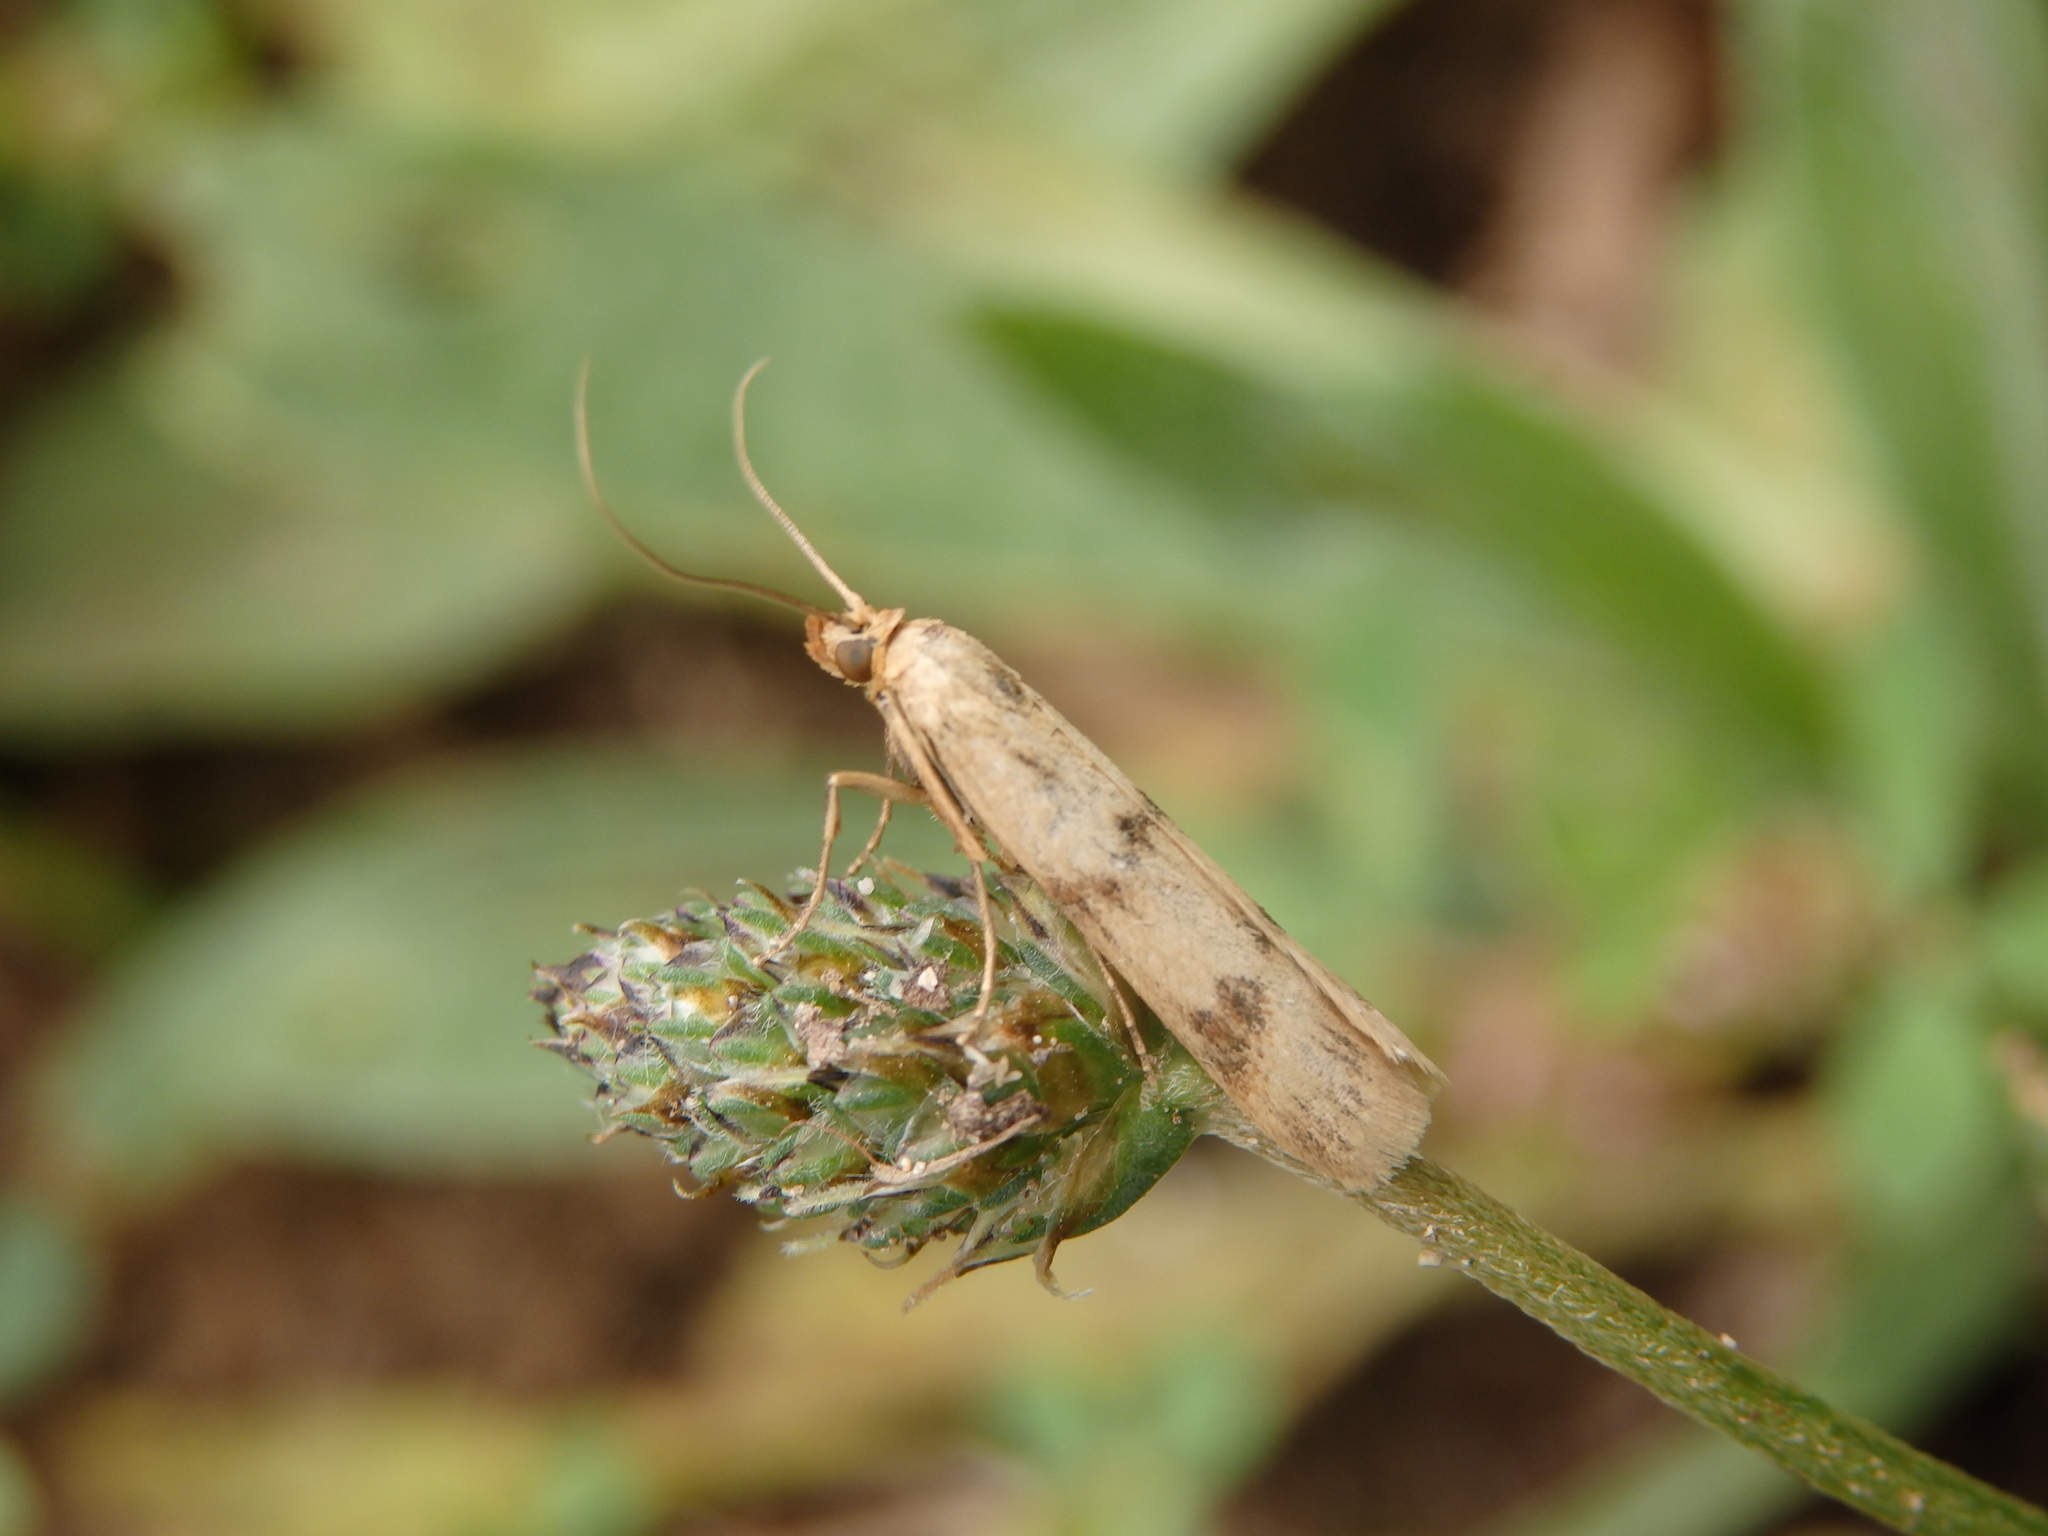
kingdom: Animalia
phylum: Arthropoda
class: Insecta
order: Lepidoptera
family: Pyralidae
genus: Homoeosoma
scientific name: Homoeosoma sinuella
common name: Twin-barred knot-horn
